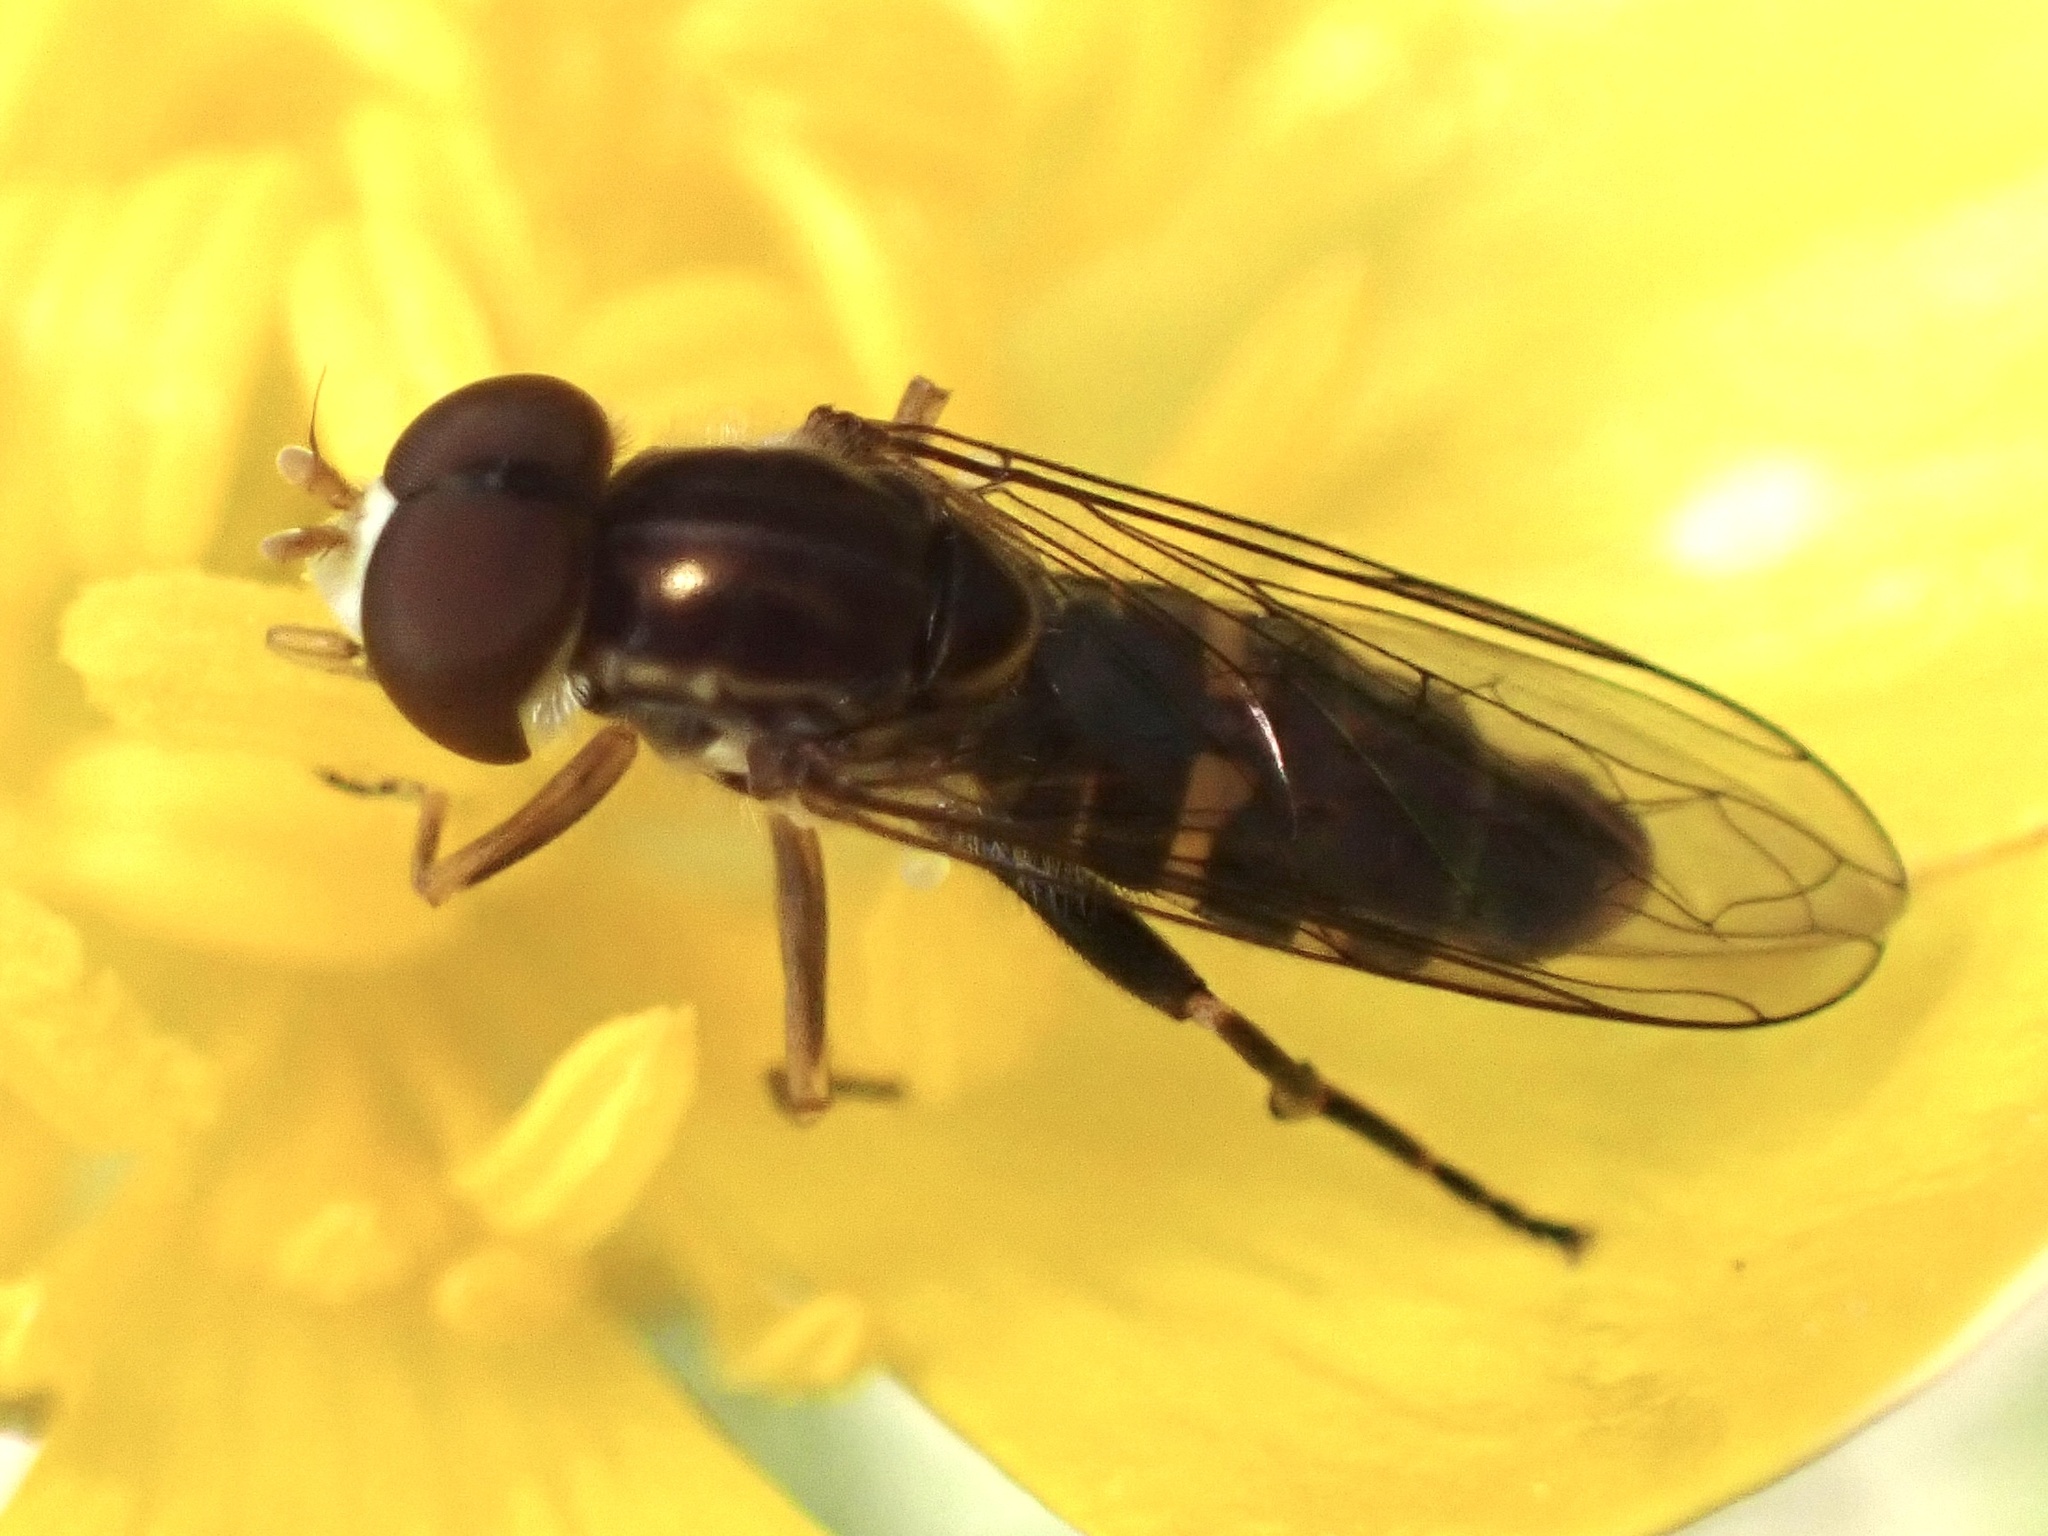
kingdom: Animalia
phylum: Arthropoda
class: Insecta
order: Diptera
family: Syrphidae
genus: Toxomerus
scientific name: Toxomerus occidentalis
